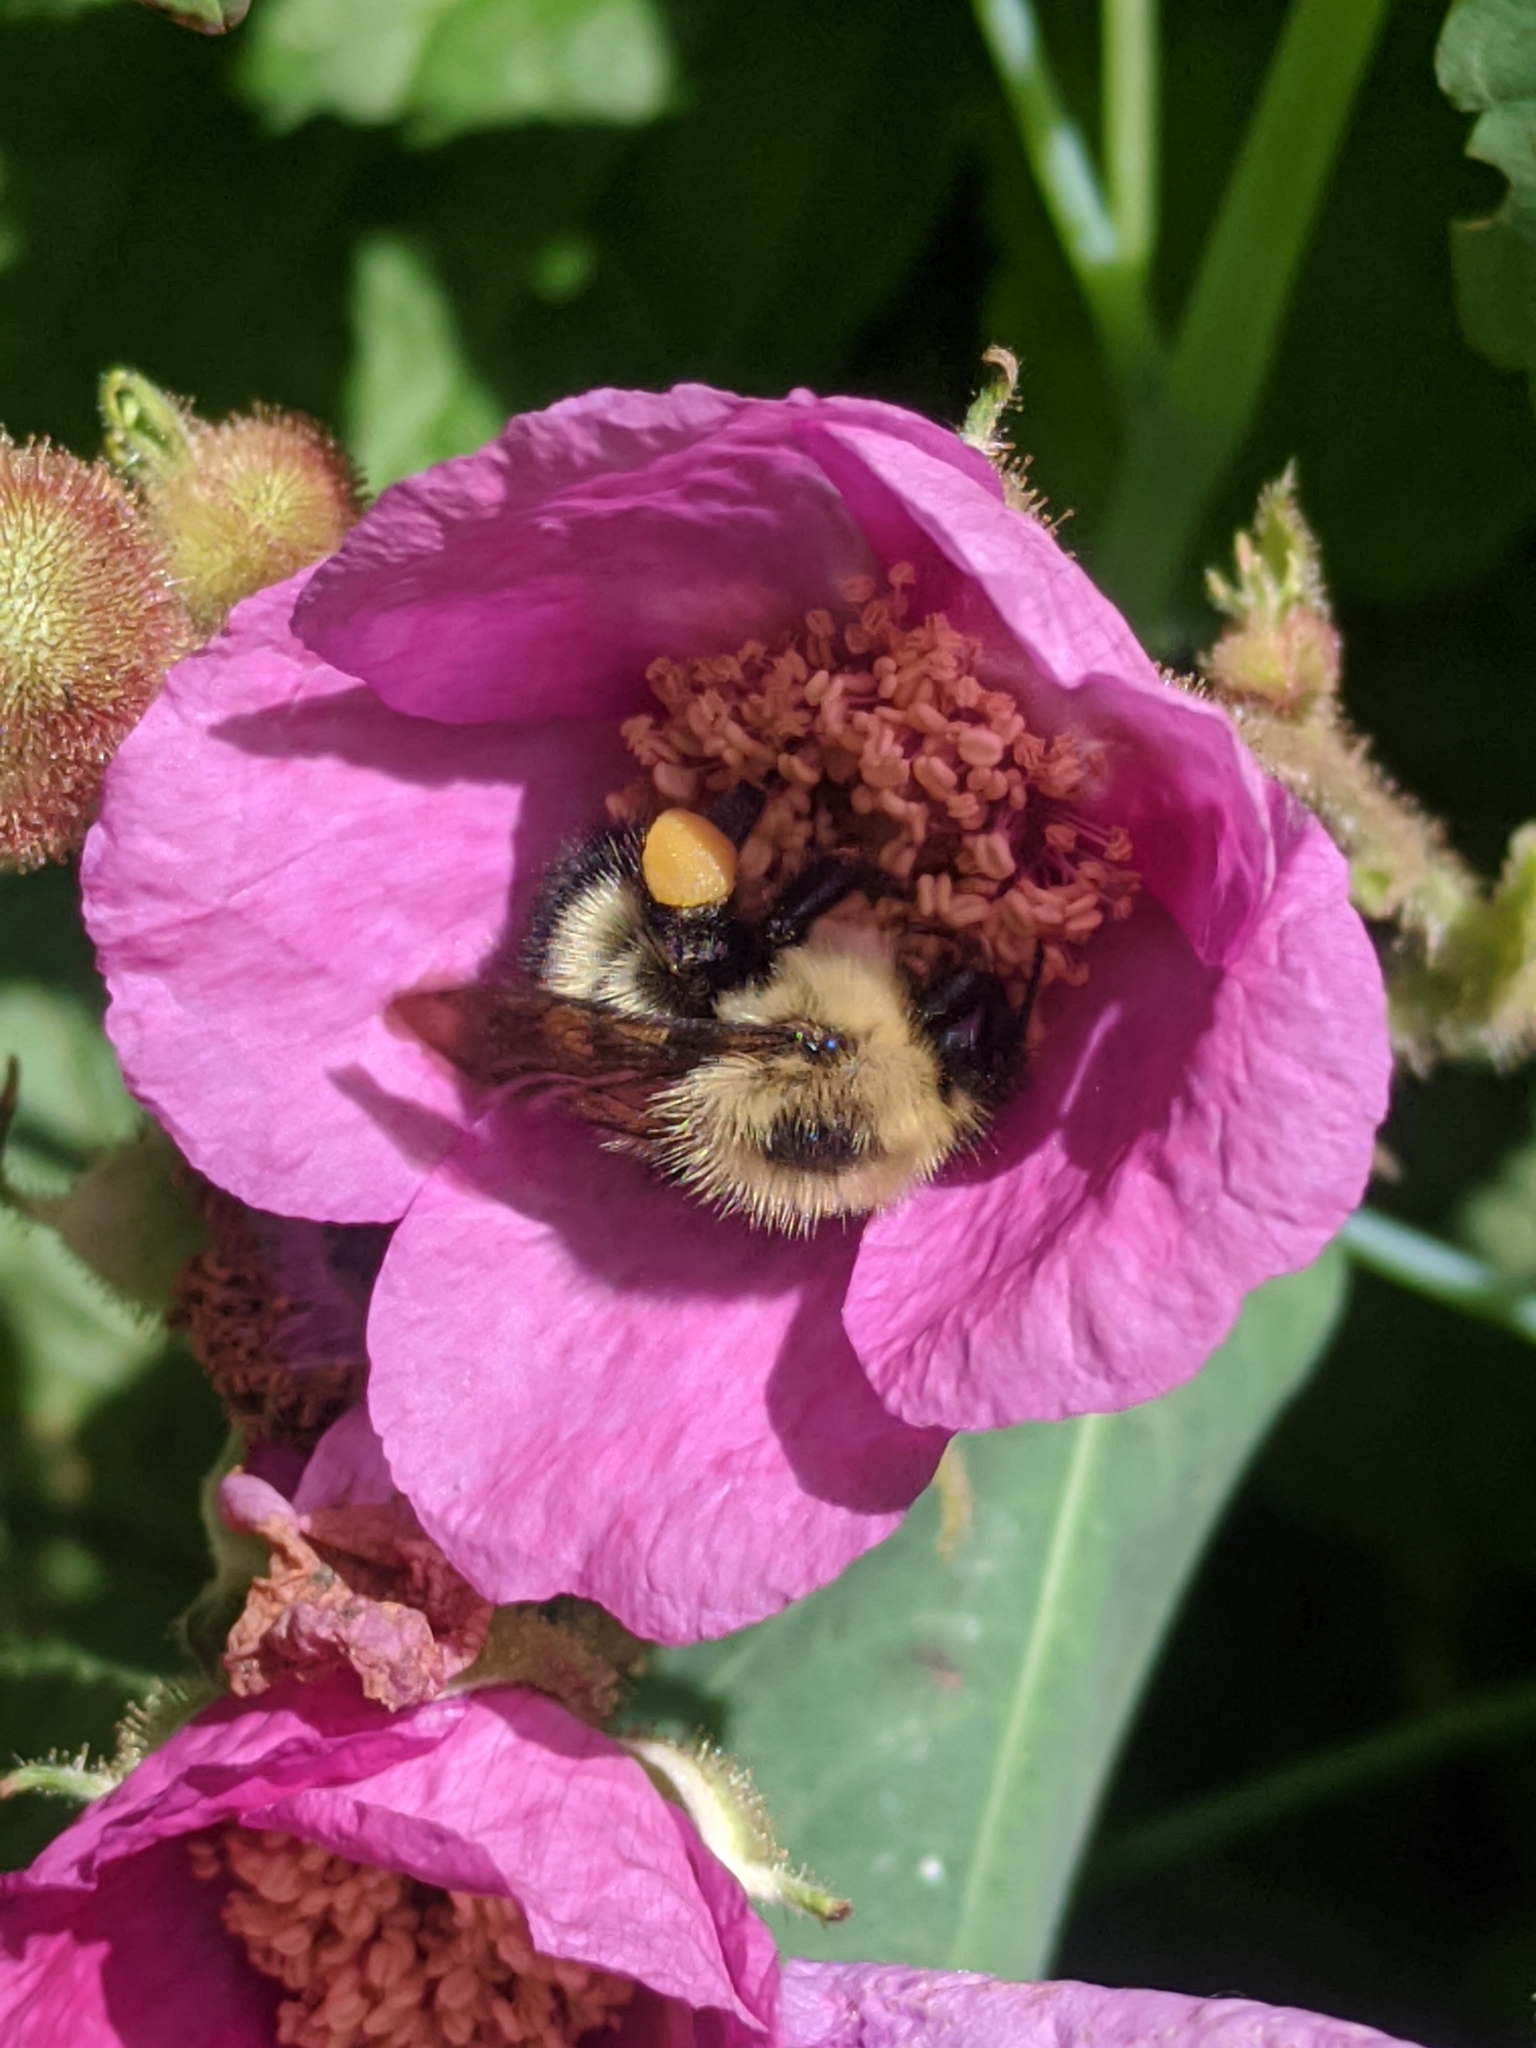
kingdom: Animalia
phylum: Arthropoda
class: Insecta
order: Hymenoptera
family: Apidae
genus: Pyrobombus
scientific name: Pyrobombus
